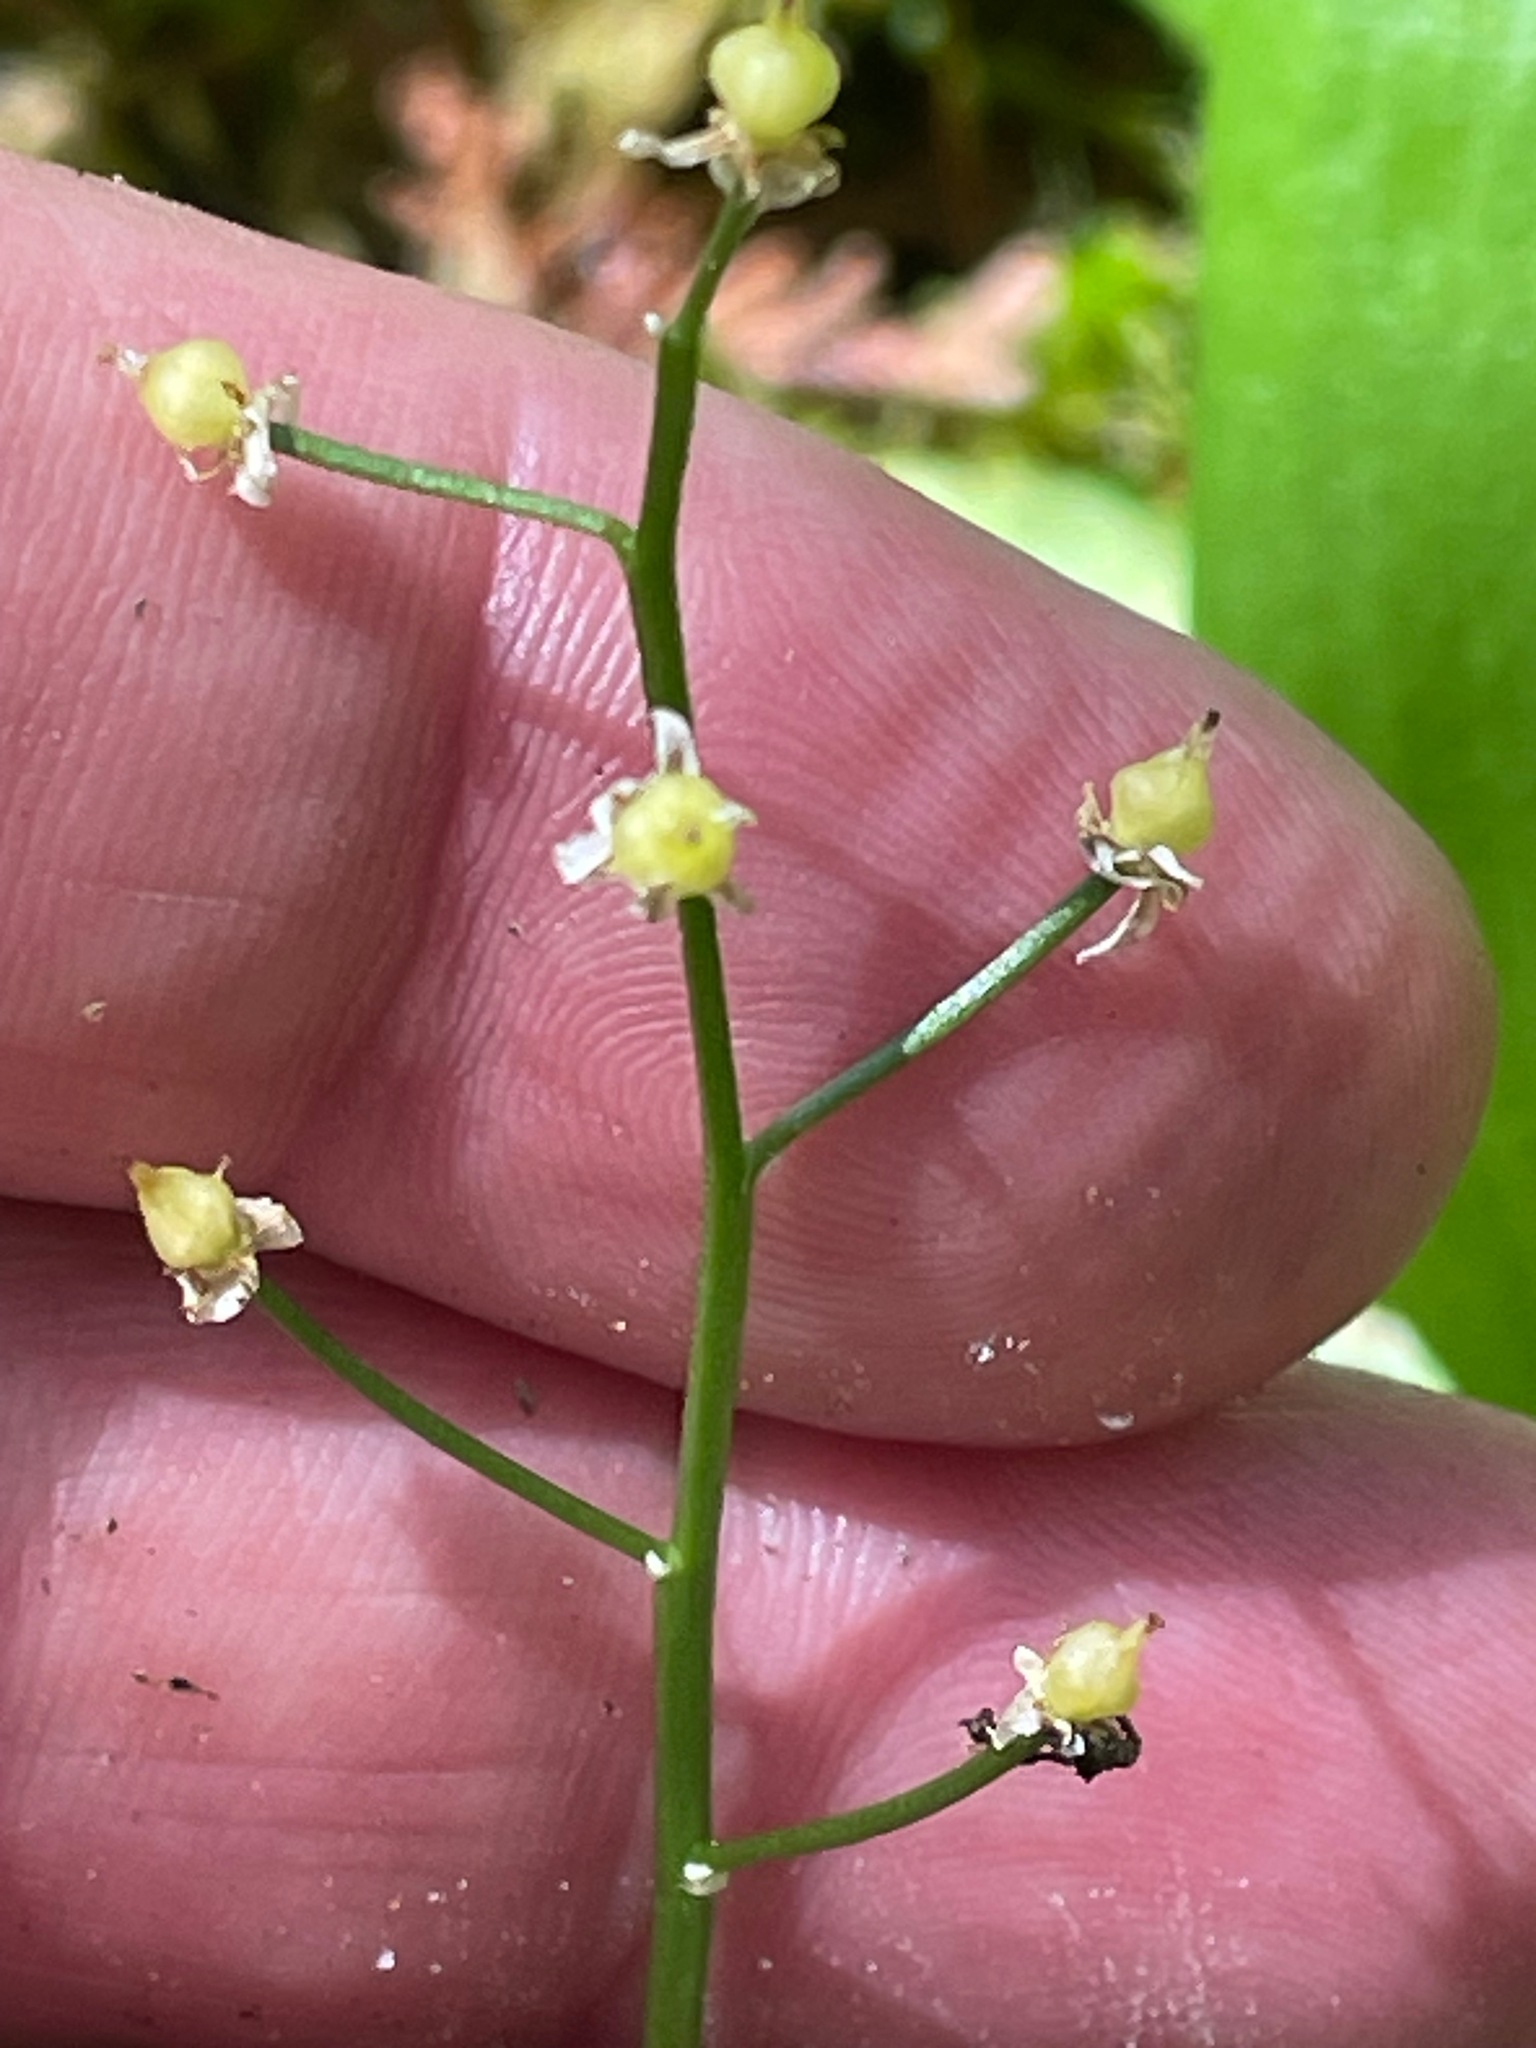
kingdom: Plantae
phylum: Tracheophyta
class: Liliopsida
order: Asparagales
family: Asparagaceae
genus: Maianthemum
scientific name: Maianthemum trifolium
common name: Swamp false solomon's seal
